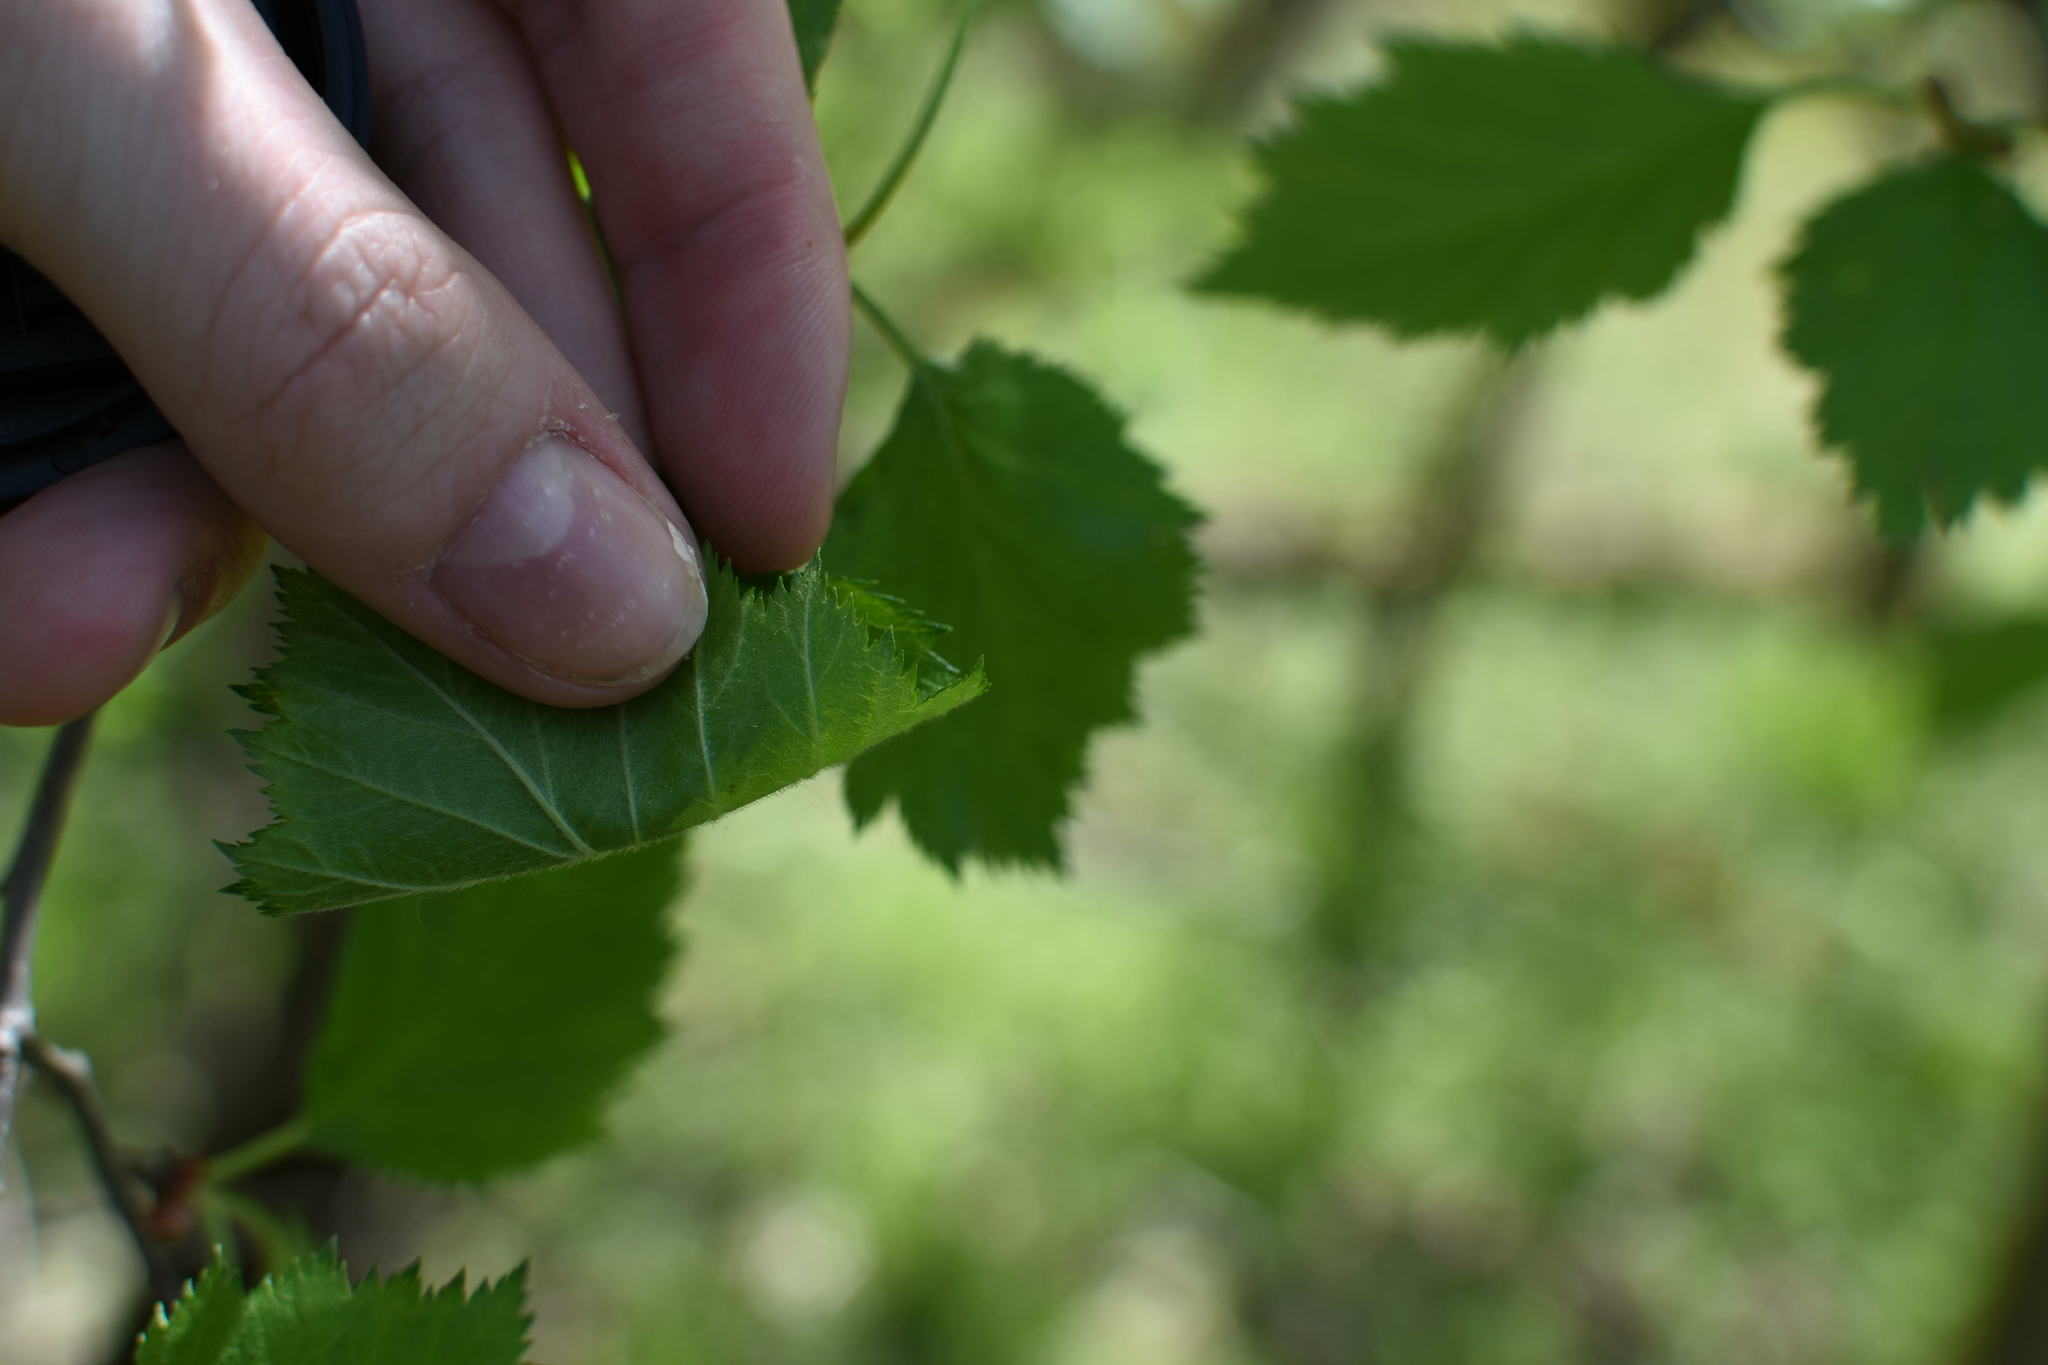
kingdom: Plantae
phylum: Tracheophyta
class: Magnoliopsida
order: Rosales
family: Rosaceae
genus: Crataegus
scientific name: Crataegus submollis
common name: Hairy cockspurthorn
